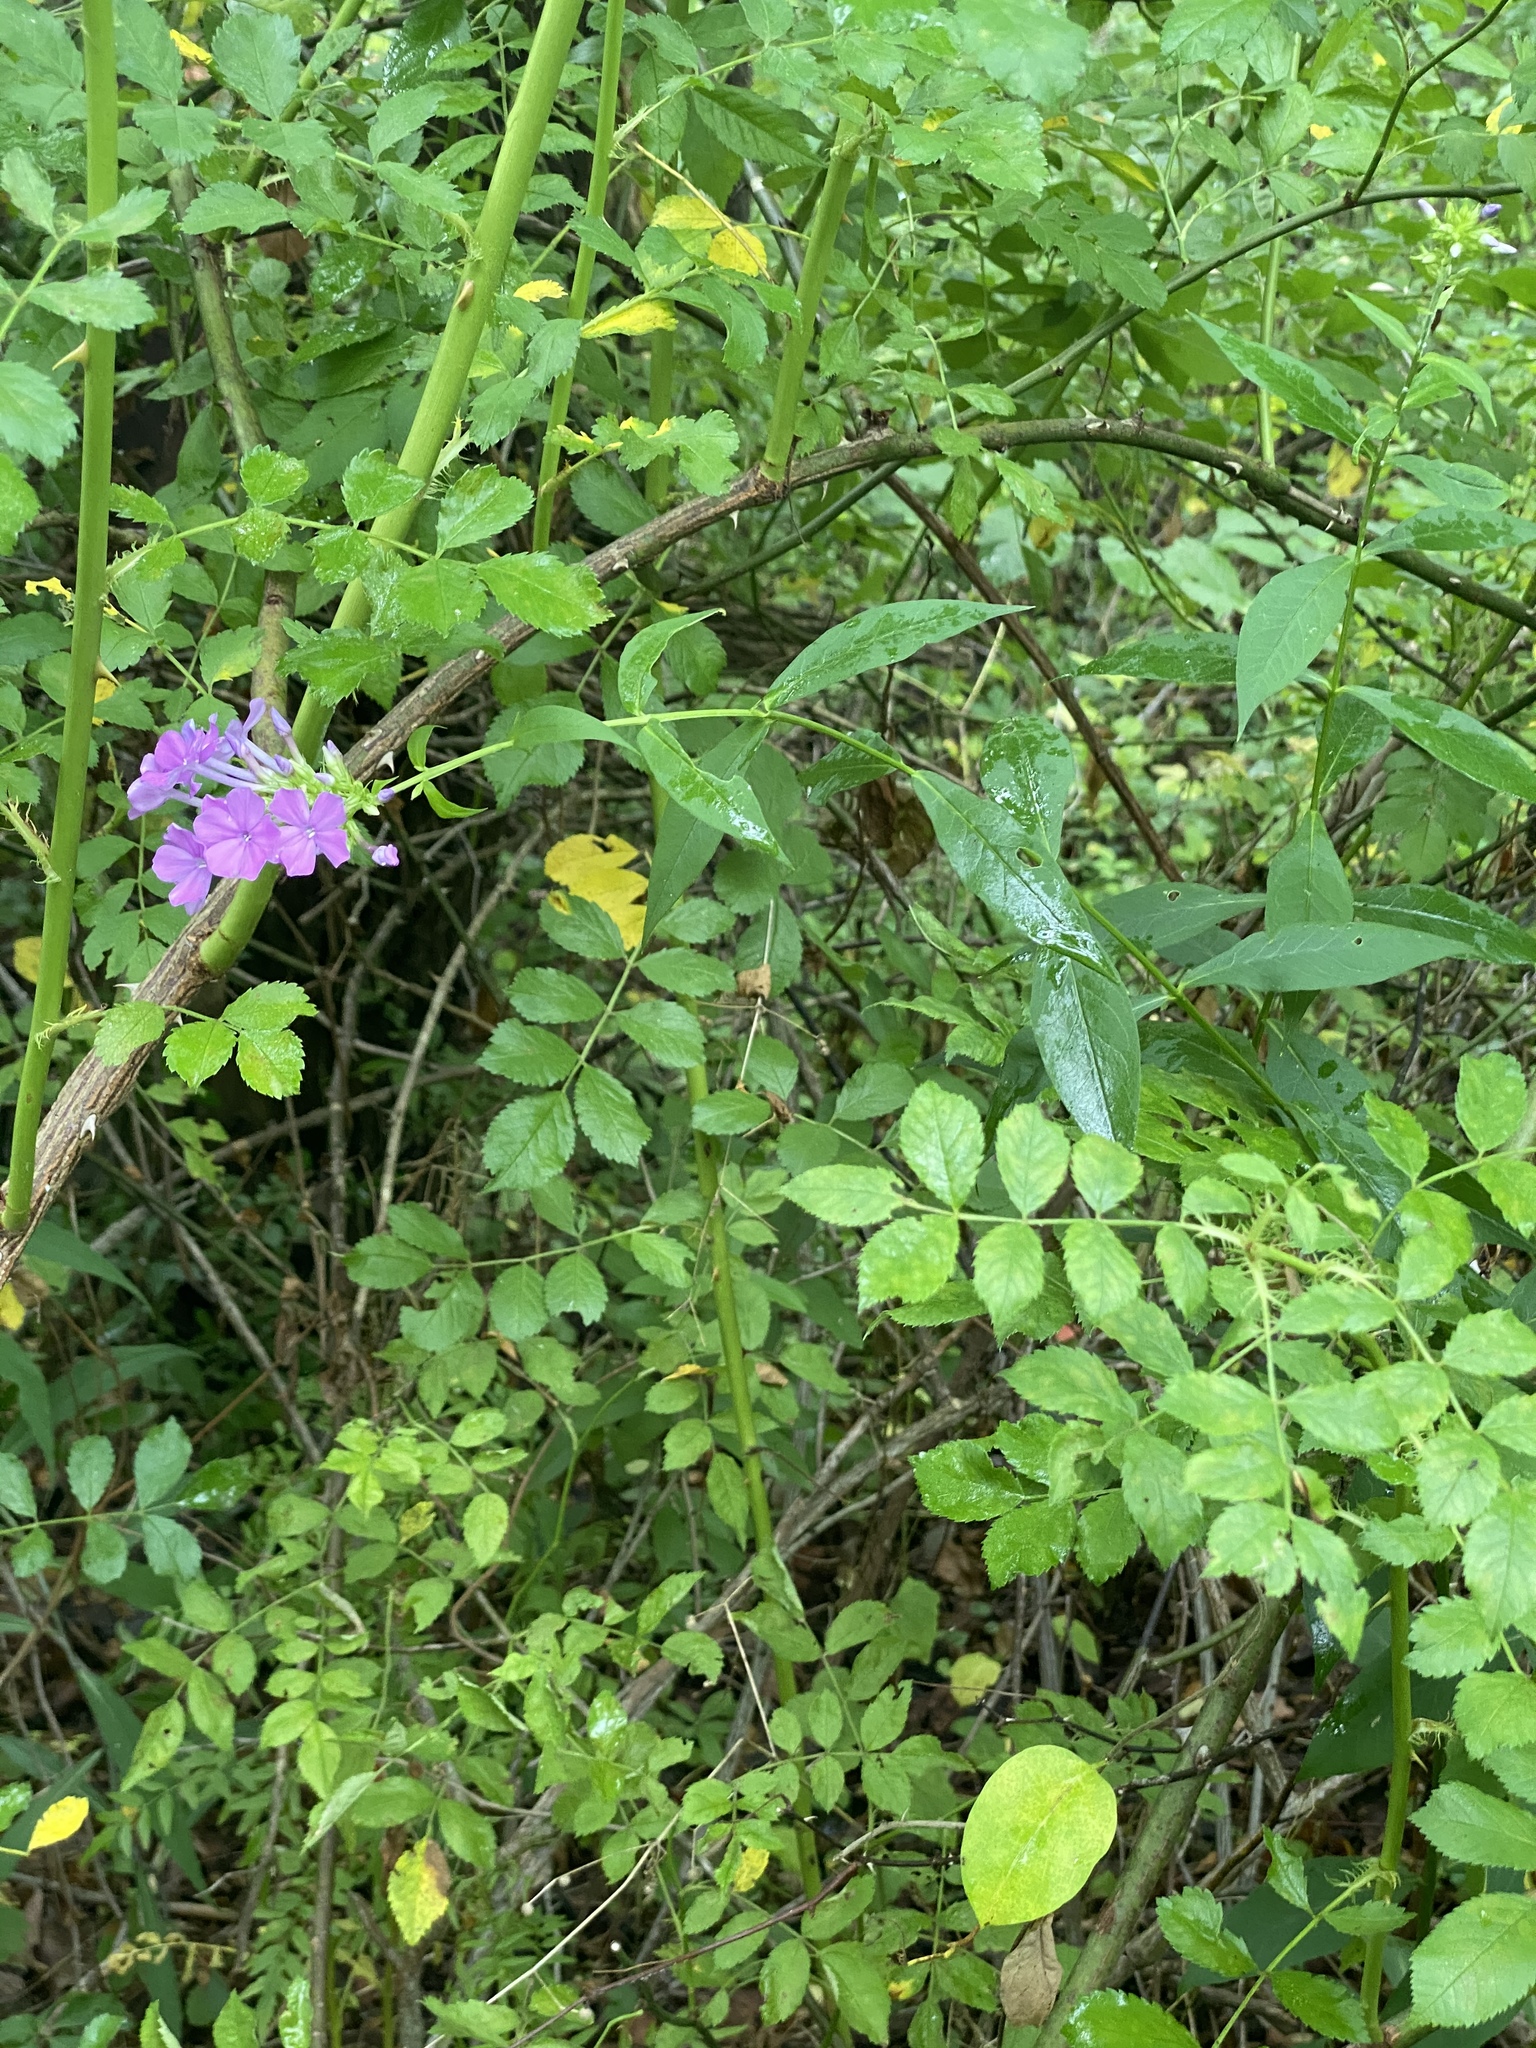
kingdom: Plantae
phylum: Tracheophyta
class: Magnoliopsida
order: Ericales
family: Polemoniaceae
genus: Phlox
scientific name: Phlox paniculata
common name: Fall phlox
